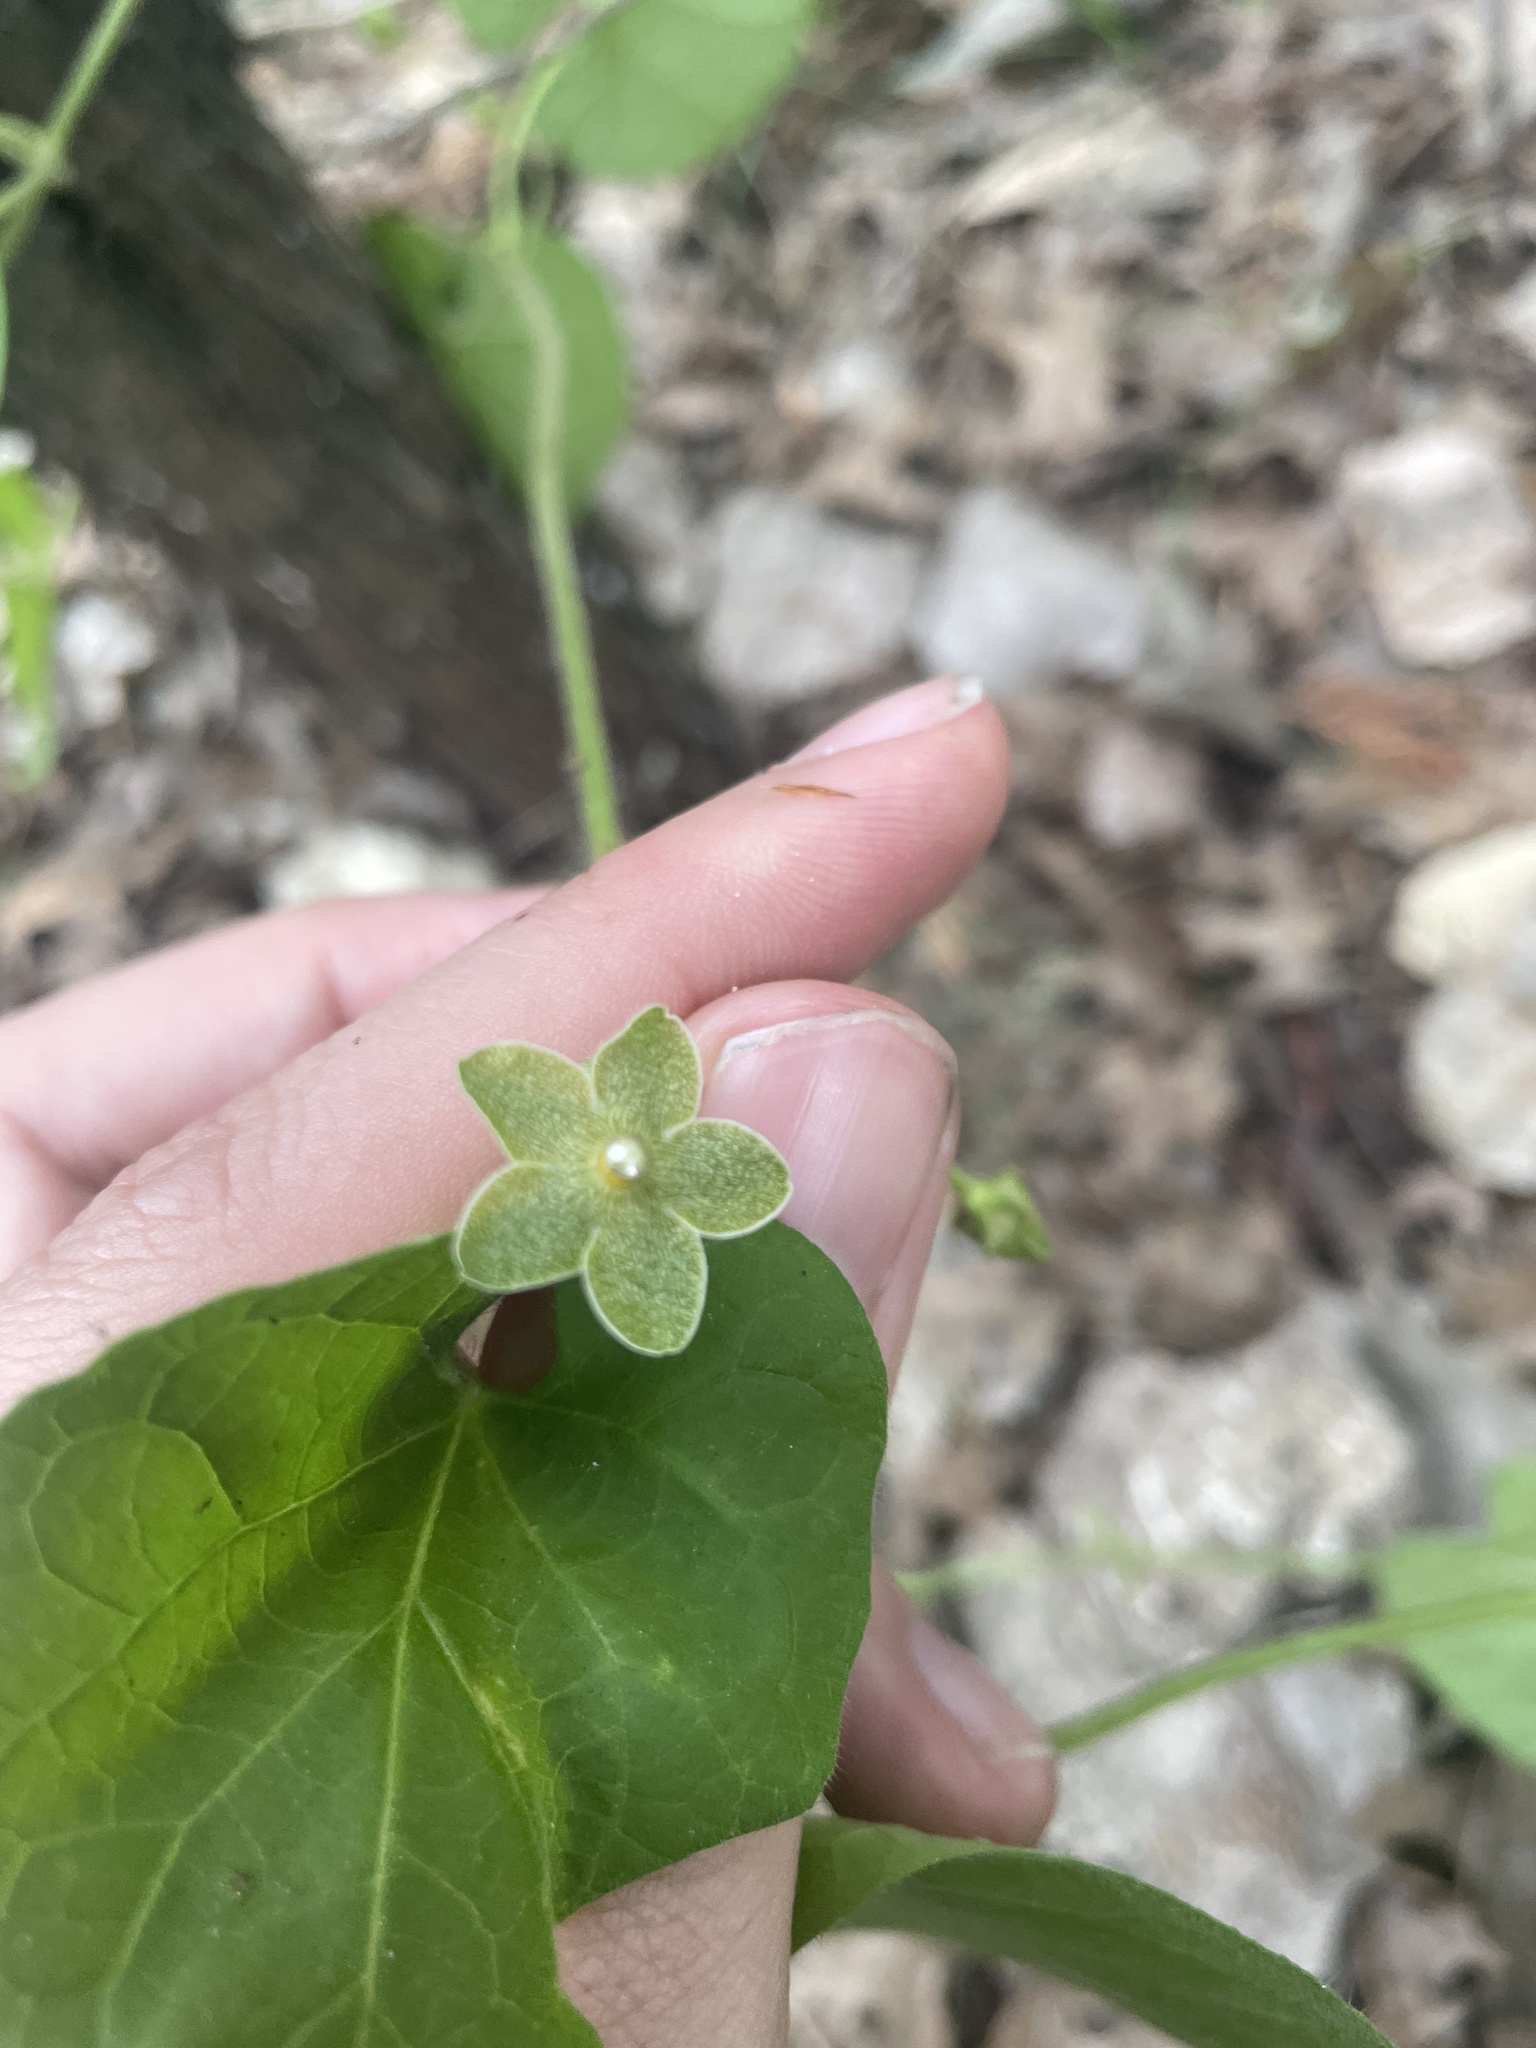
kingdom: Plantae
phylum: Tracheophyta
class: Magnoliopsida
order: Gentianales
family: Apocynaceae
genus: Dictyanthus
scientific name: Dictyanthus reticulatus
